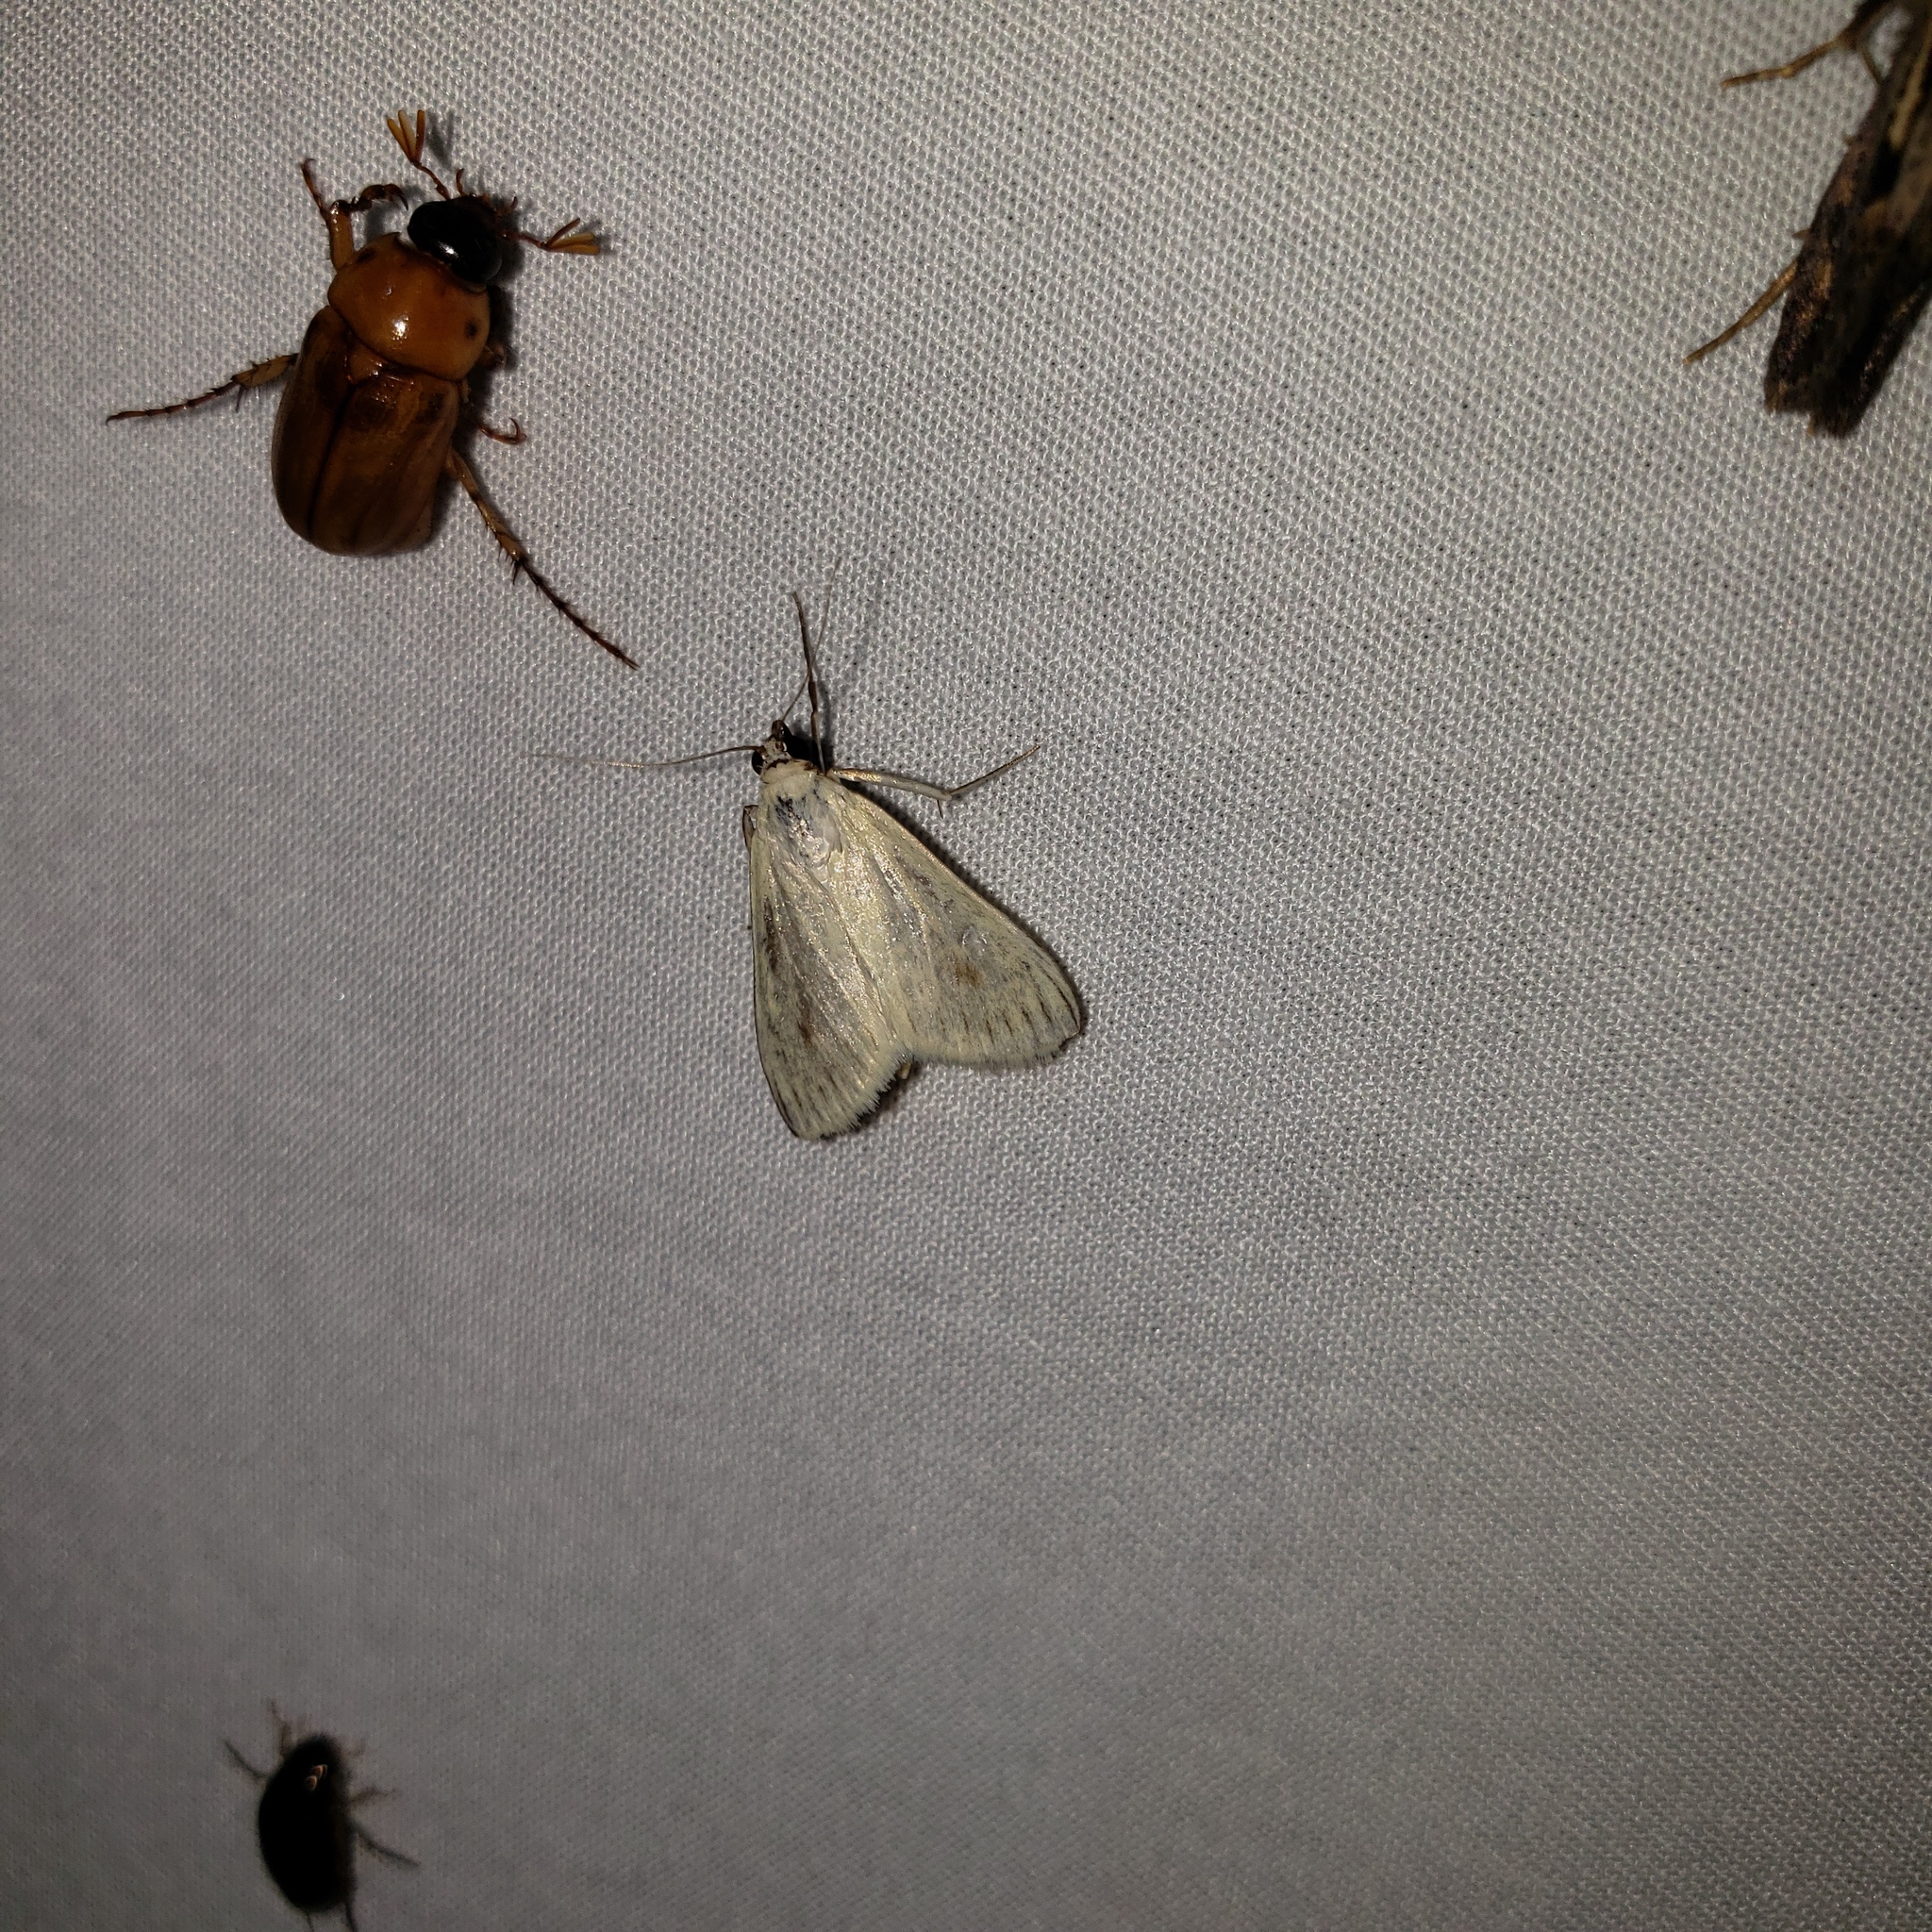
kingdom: Animalia
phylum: Arthropoda
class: Insecta
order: Lepidoptera
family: Crambidae
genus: Sitochroa
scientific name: Sitochroa palealis
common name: Greenish-yellow sitochroa moth
